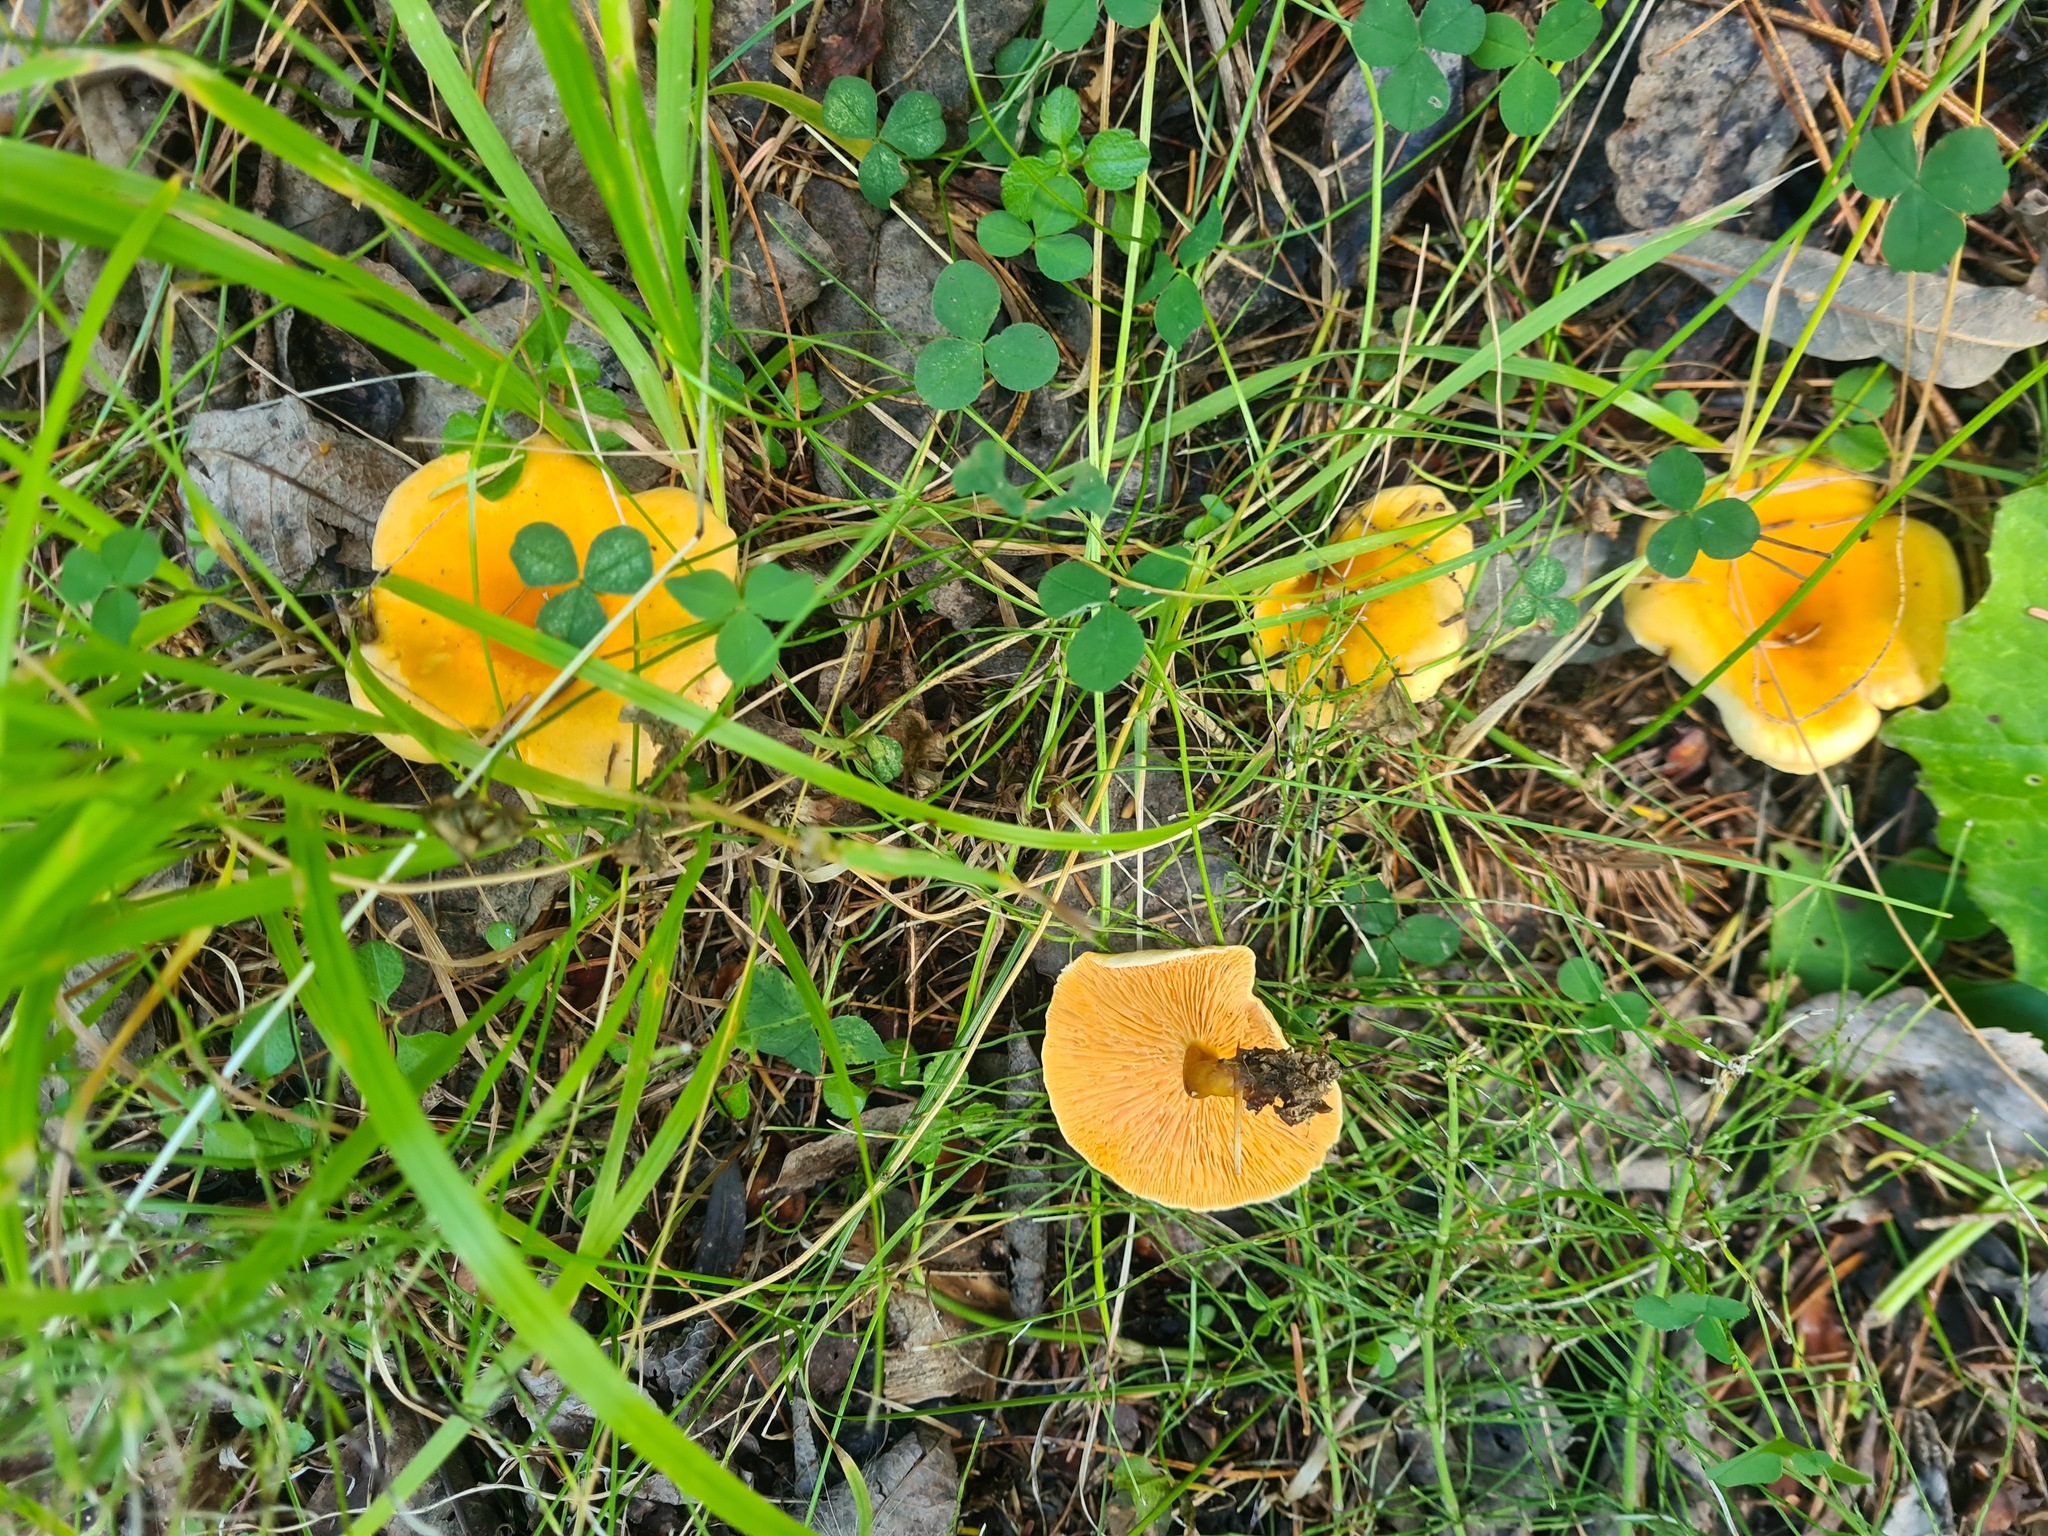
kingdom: Fungi
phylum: Basidiomycota
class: Agaricomycetes
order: Boletales
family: Hygrophoropsidaceae
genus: Hygrophoropsis
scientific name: Hygrophoropsis aurantiaca
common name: False chanterelle
